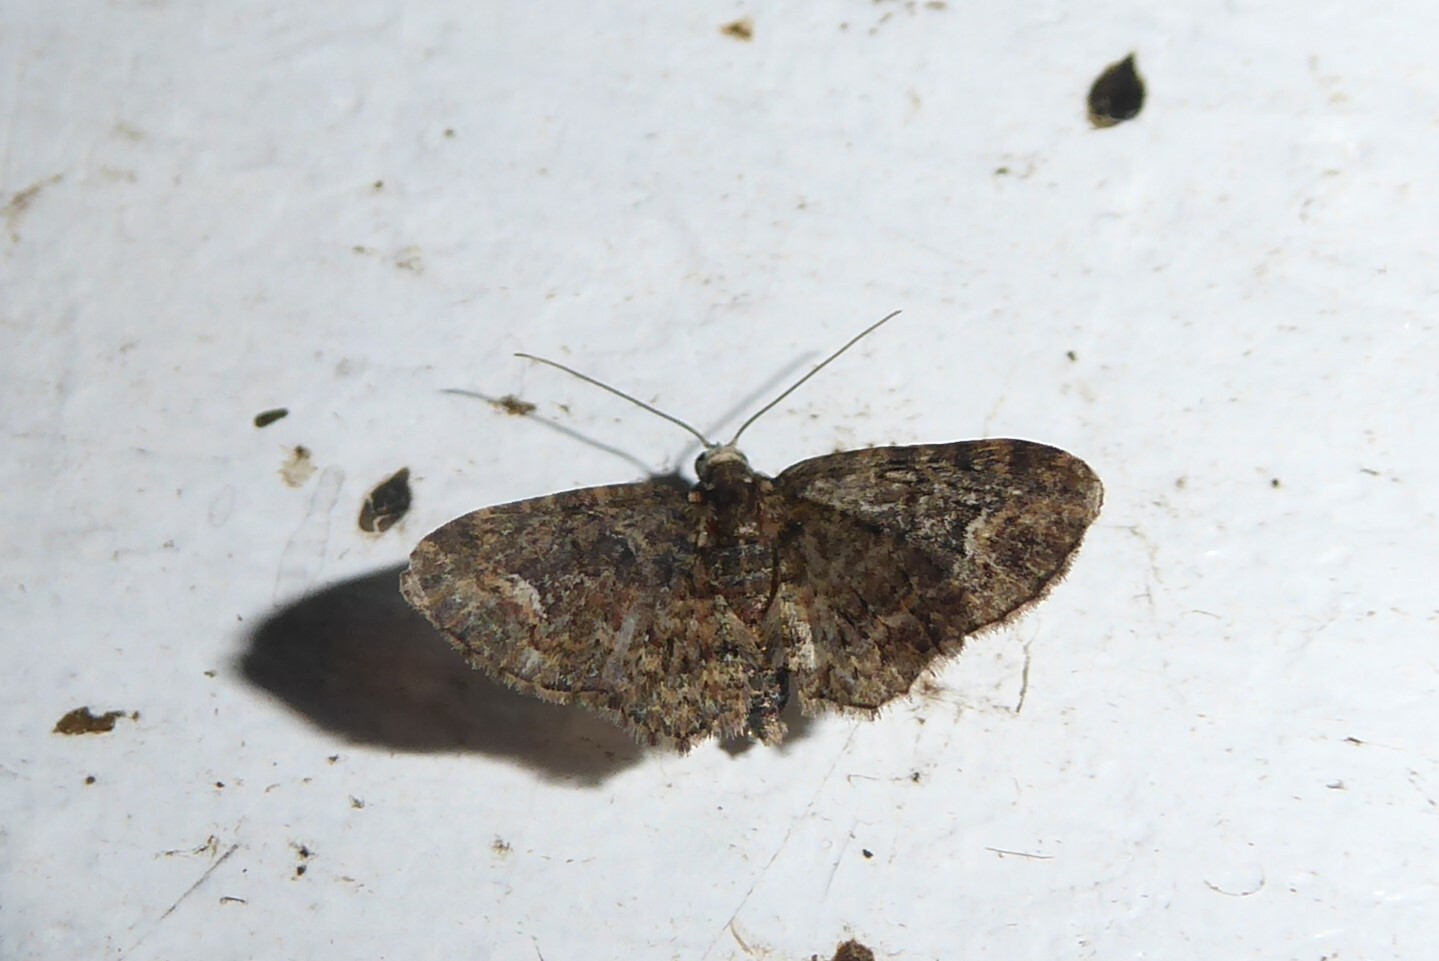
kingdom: Animalia
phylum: Arthropoda
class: Insecta
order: Lepidoptera
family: Geometridae
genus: Pasiphilodes
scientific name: Pasiphilodes testulata
